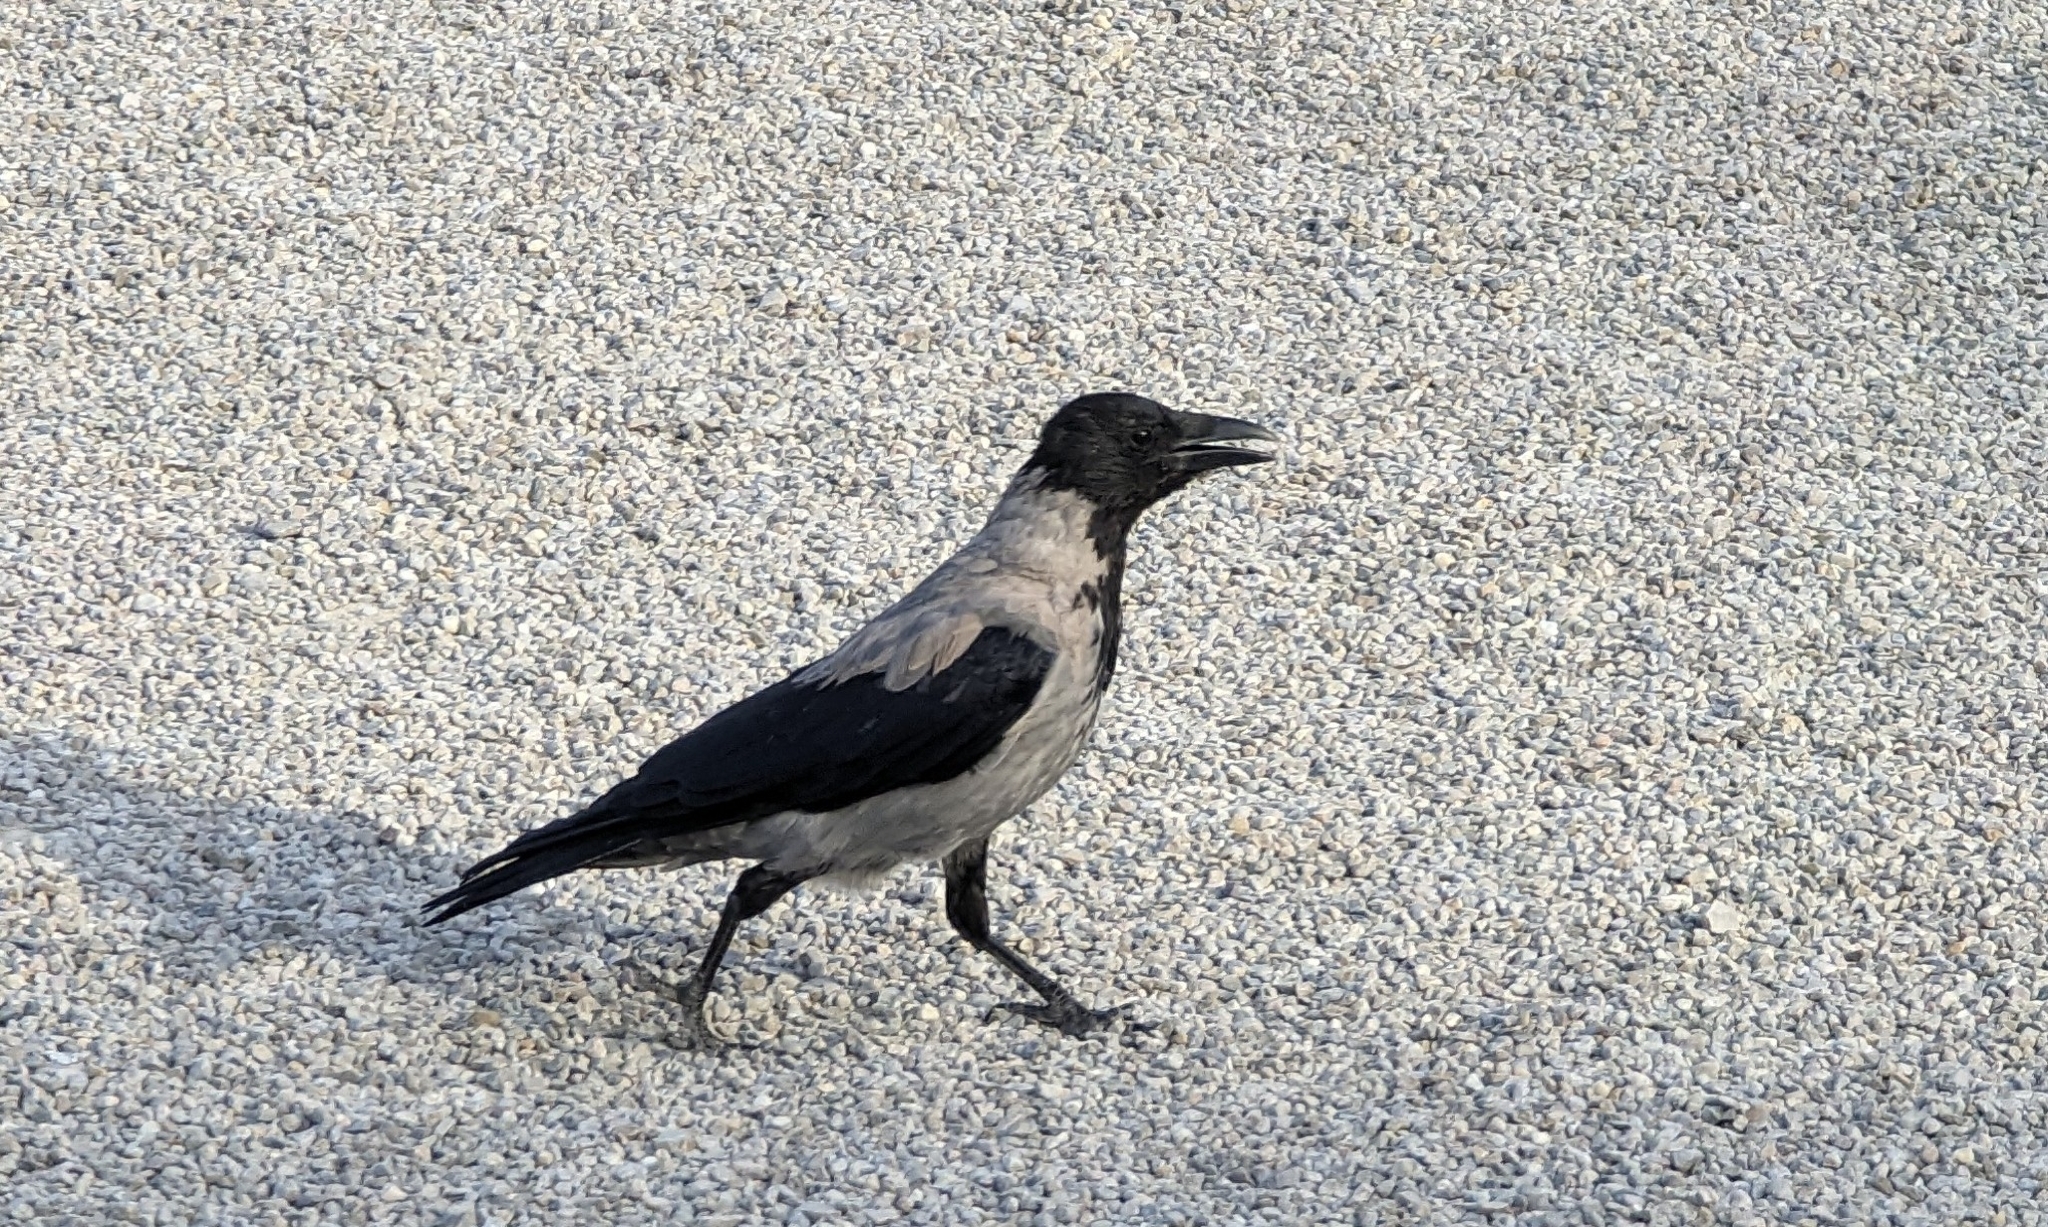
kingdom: Animalia
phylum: Chordata
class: Aves
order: Passeriformes
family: Corvidae
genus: Corvus
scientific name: Corvus cornix
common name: Hooded crow
